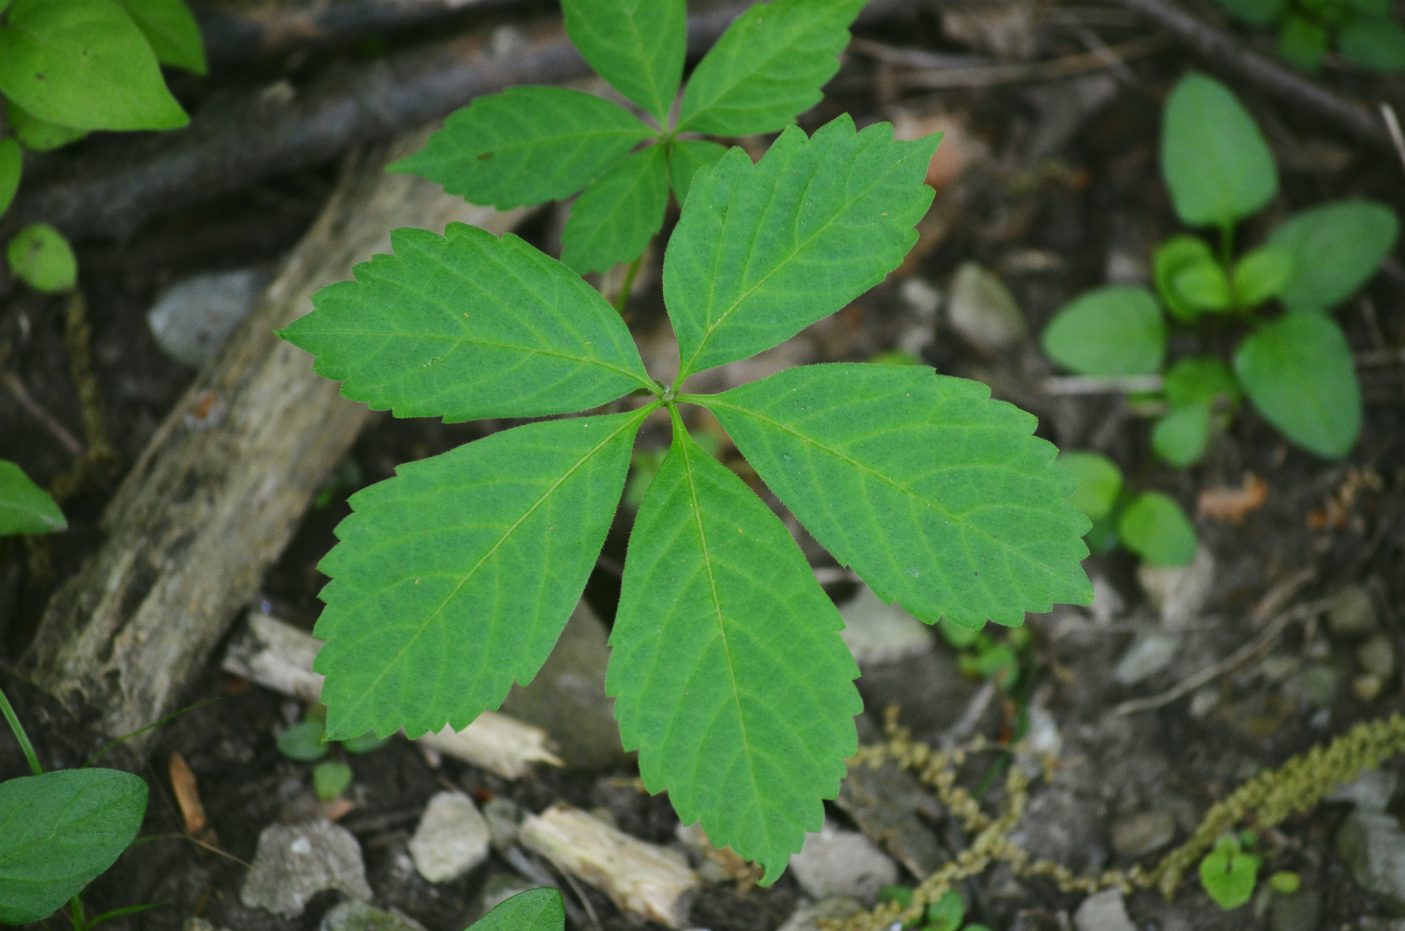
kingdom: Plantae
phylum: Tracheophyta
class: Magnoliopsida
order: Vitales
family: Vitaceae
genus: Parthenocissus
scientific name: Parthenocissus quinquefolia
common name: Virginia-creeper
